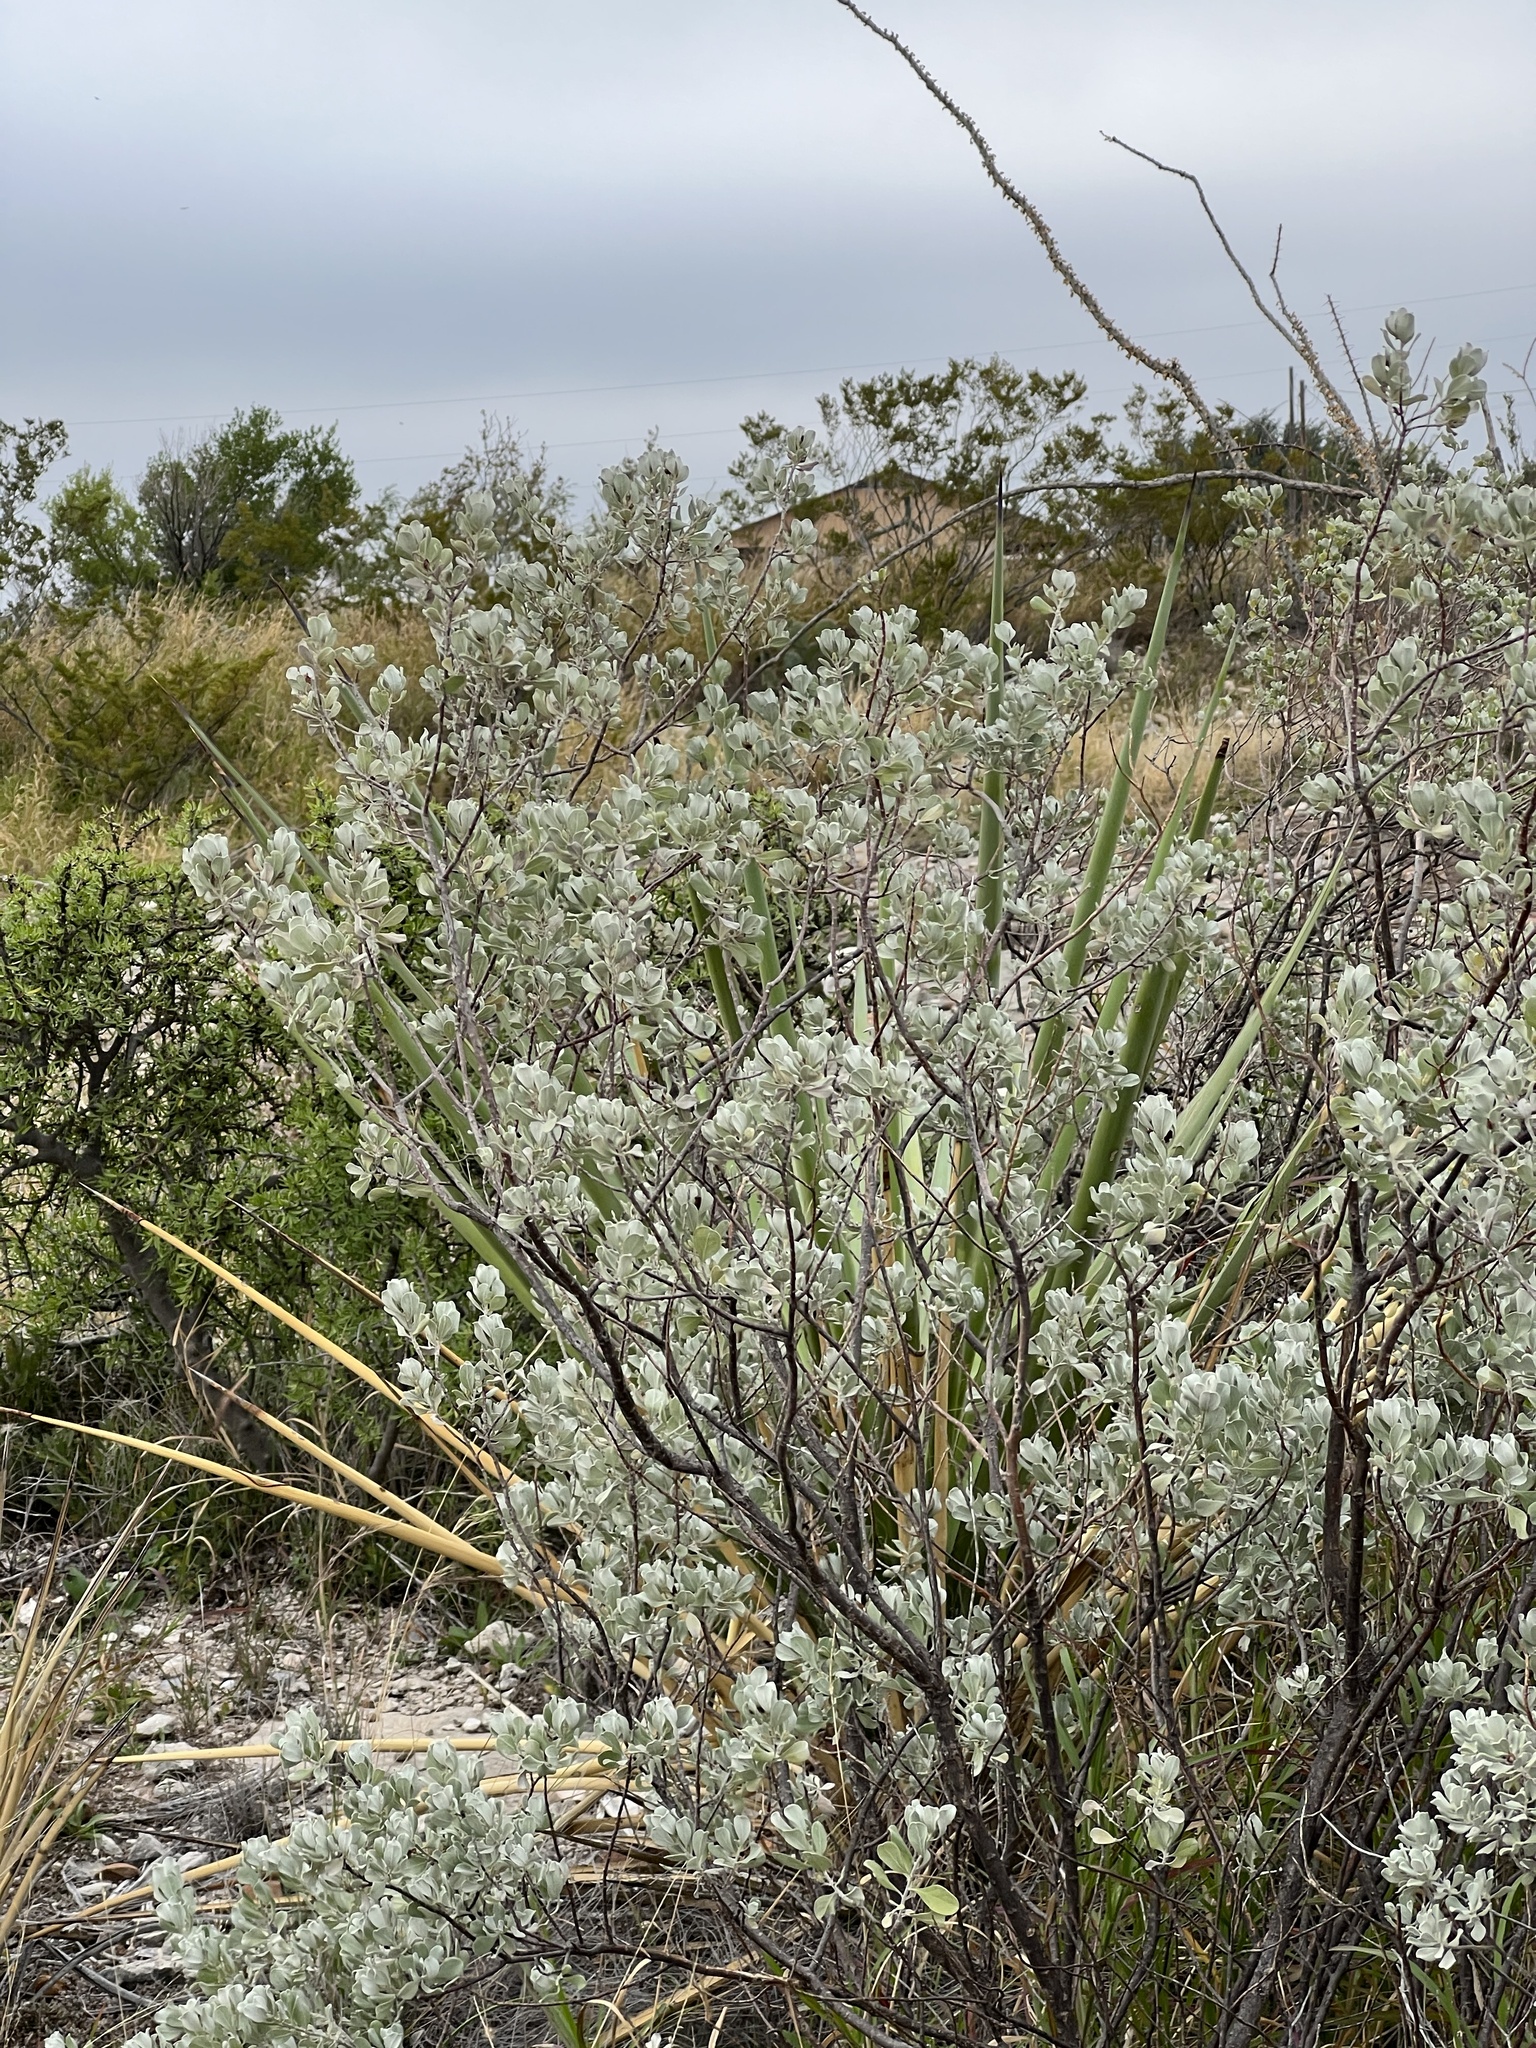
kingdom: Plantae
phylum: Tracheophyta
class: Magnoliopsida
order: Lamiales
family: Scrophulariaceae
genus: Leucophyllum
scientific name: Leucophyllum frutescens
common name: Texas silverleaf
